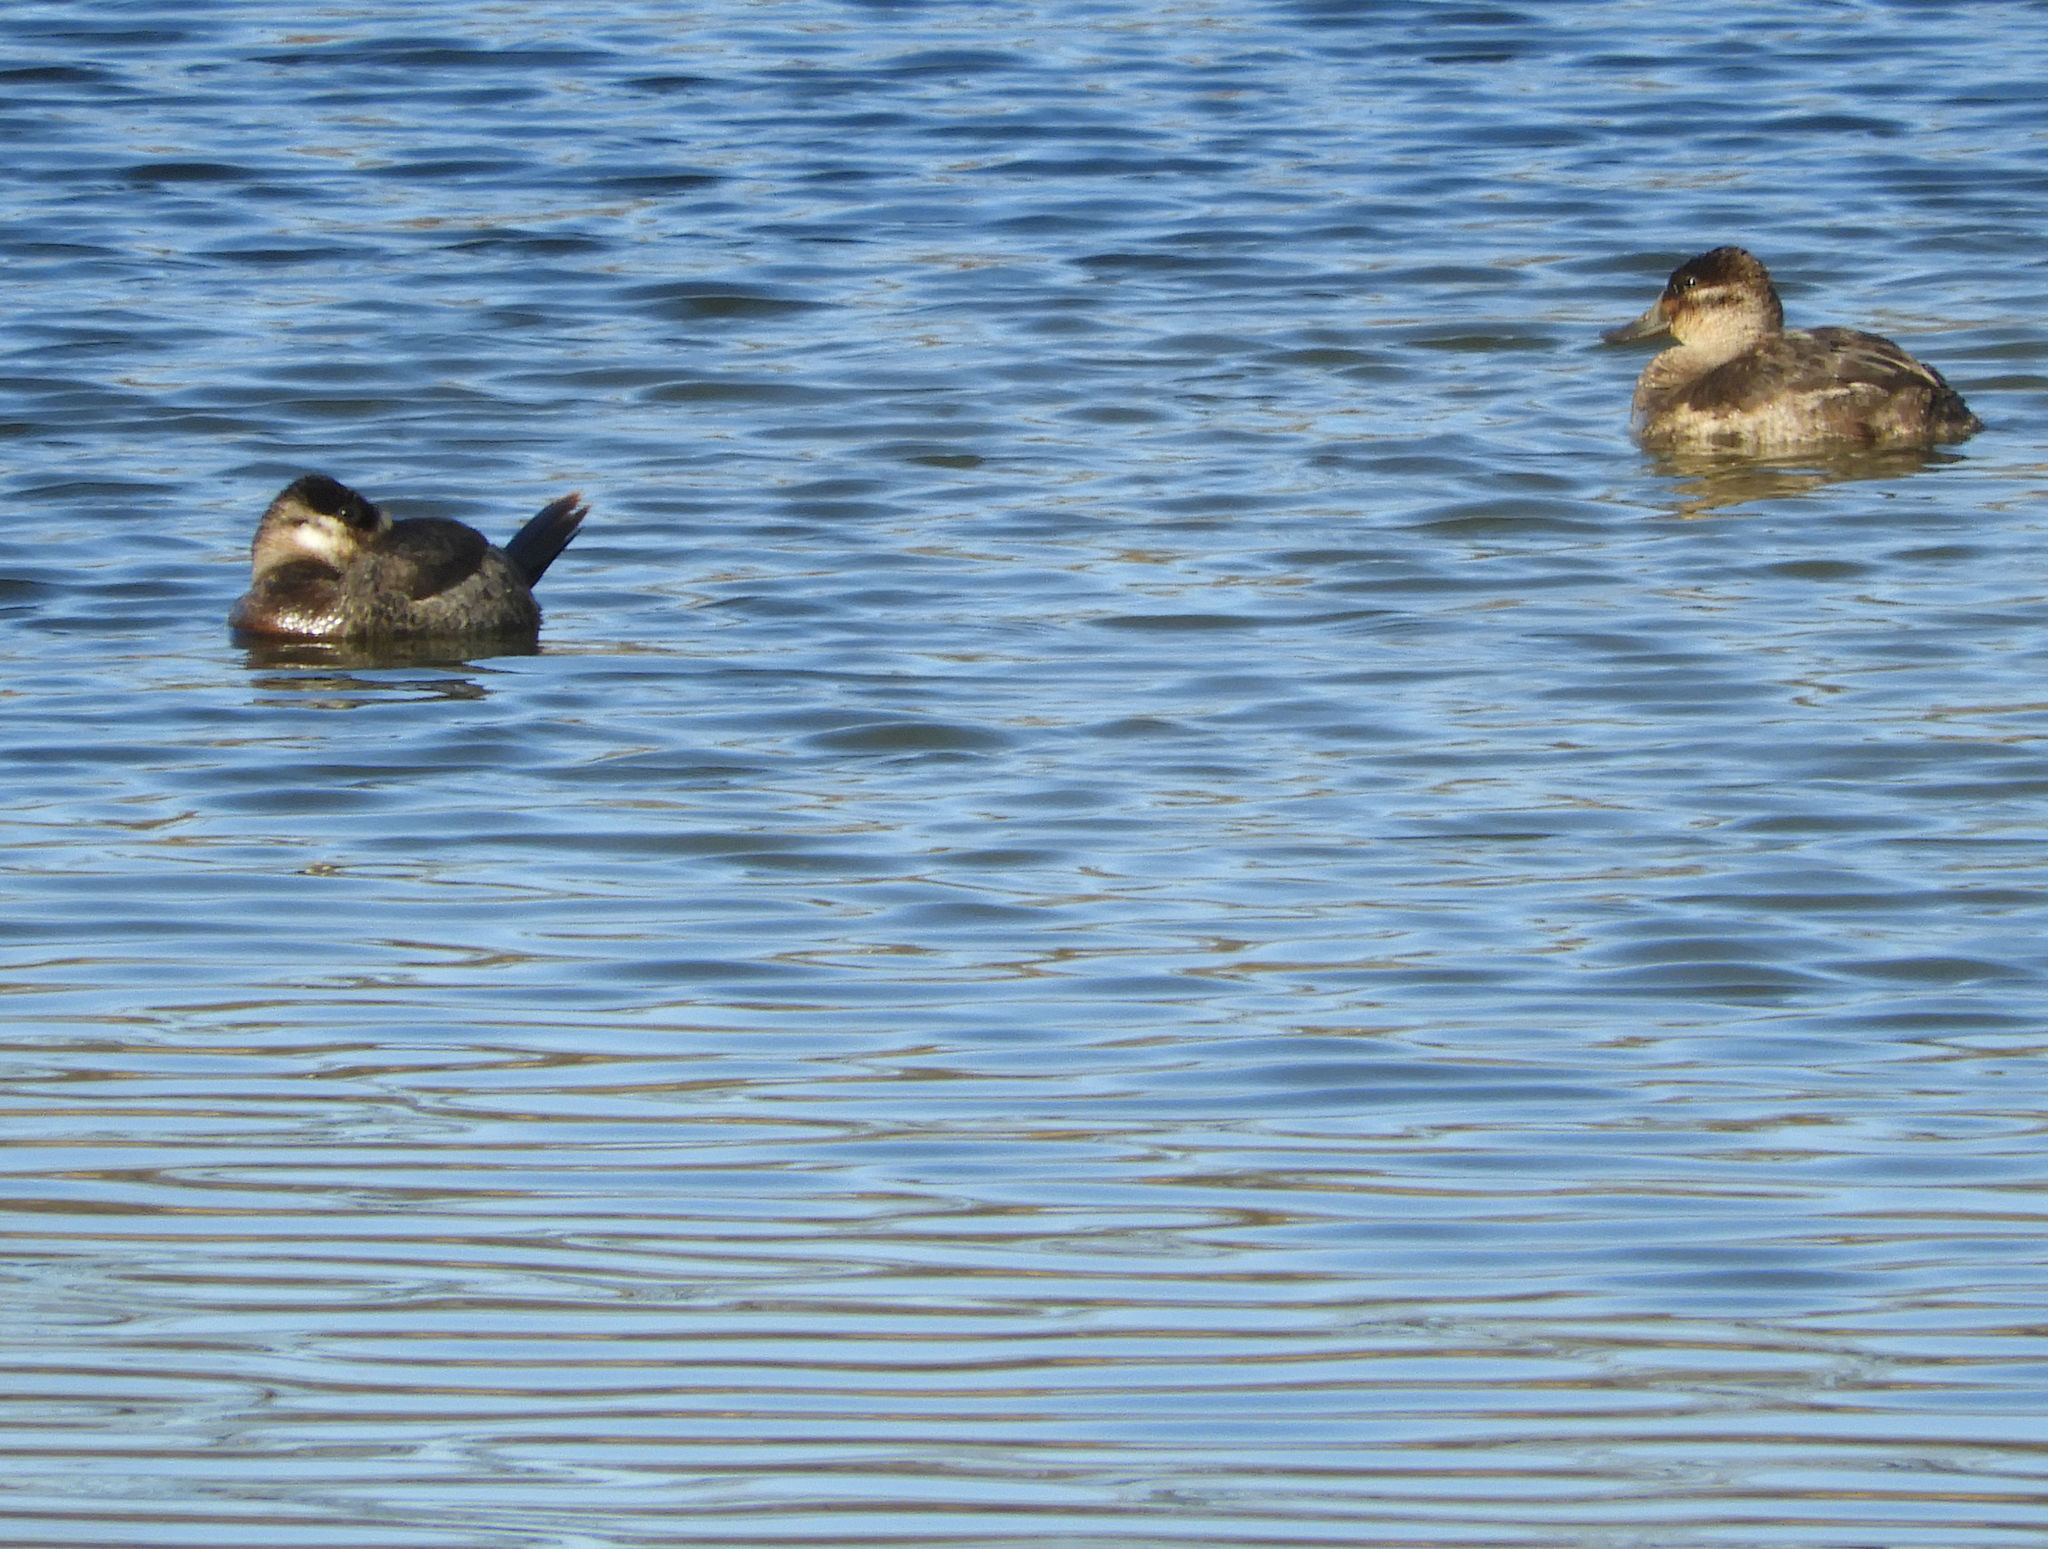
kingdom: Animalia
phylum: Chordata
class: Aves
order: Anseriformes
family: Anatidae
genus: Oxyura
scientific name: Oxyura jamaicensis
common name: Ruddy duck
